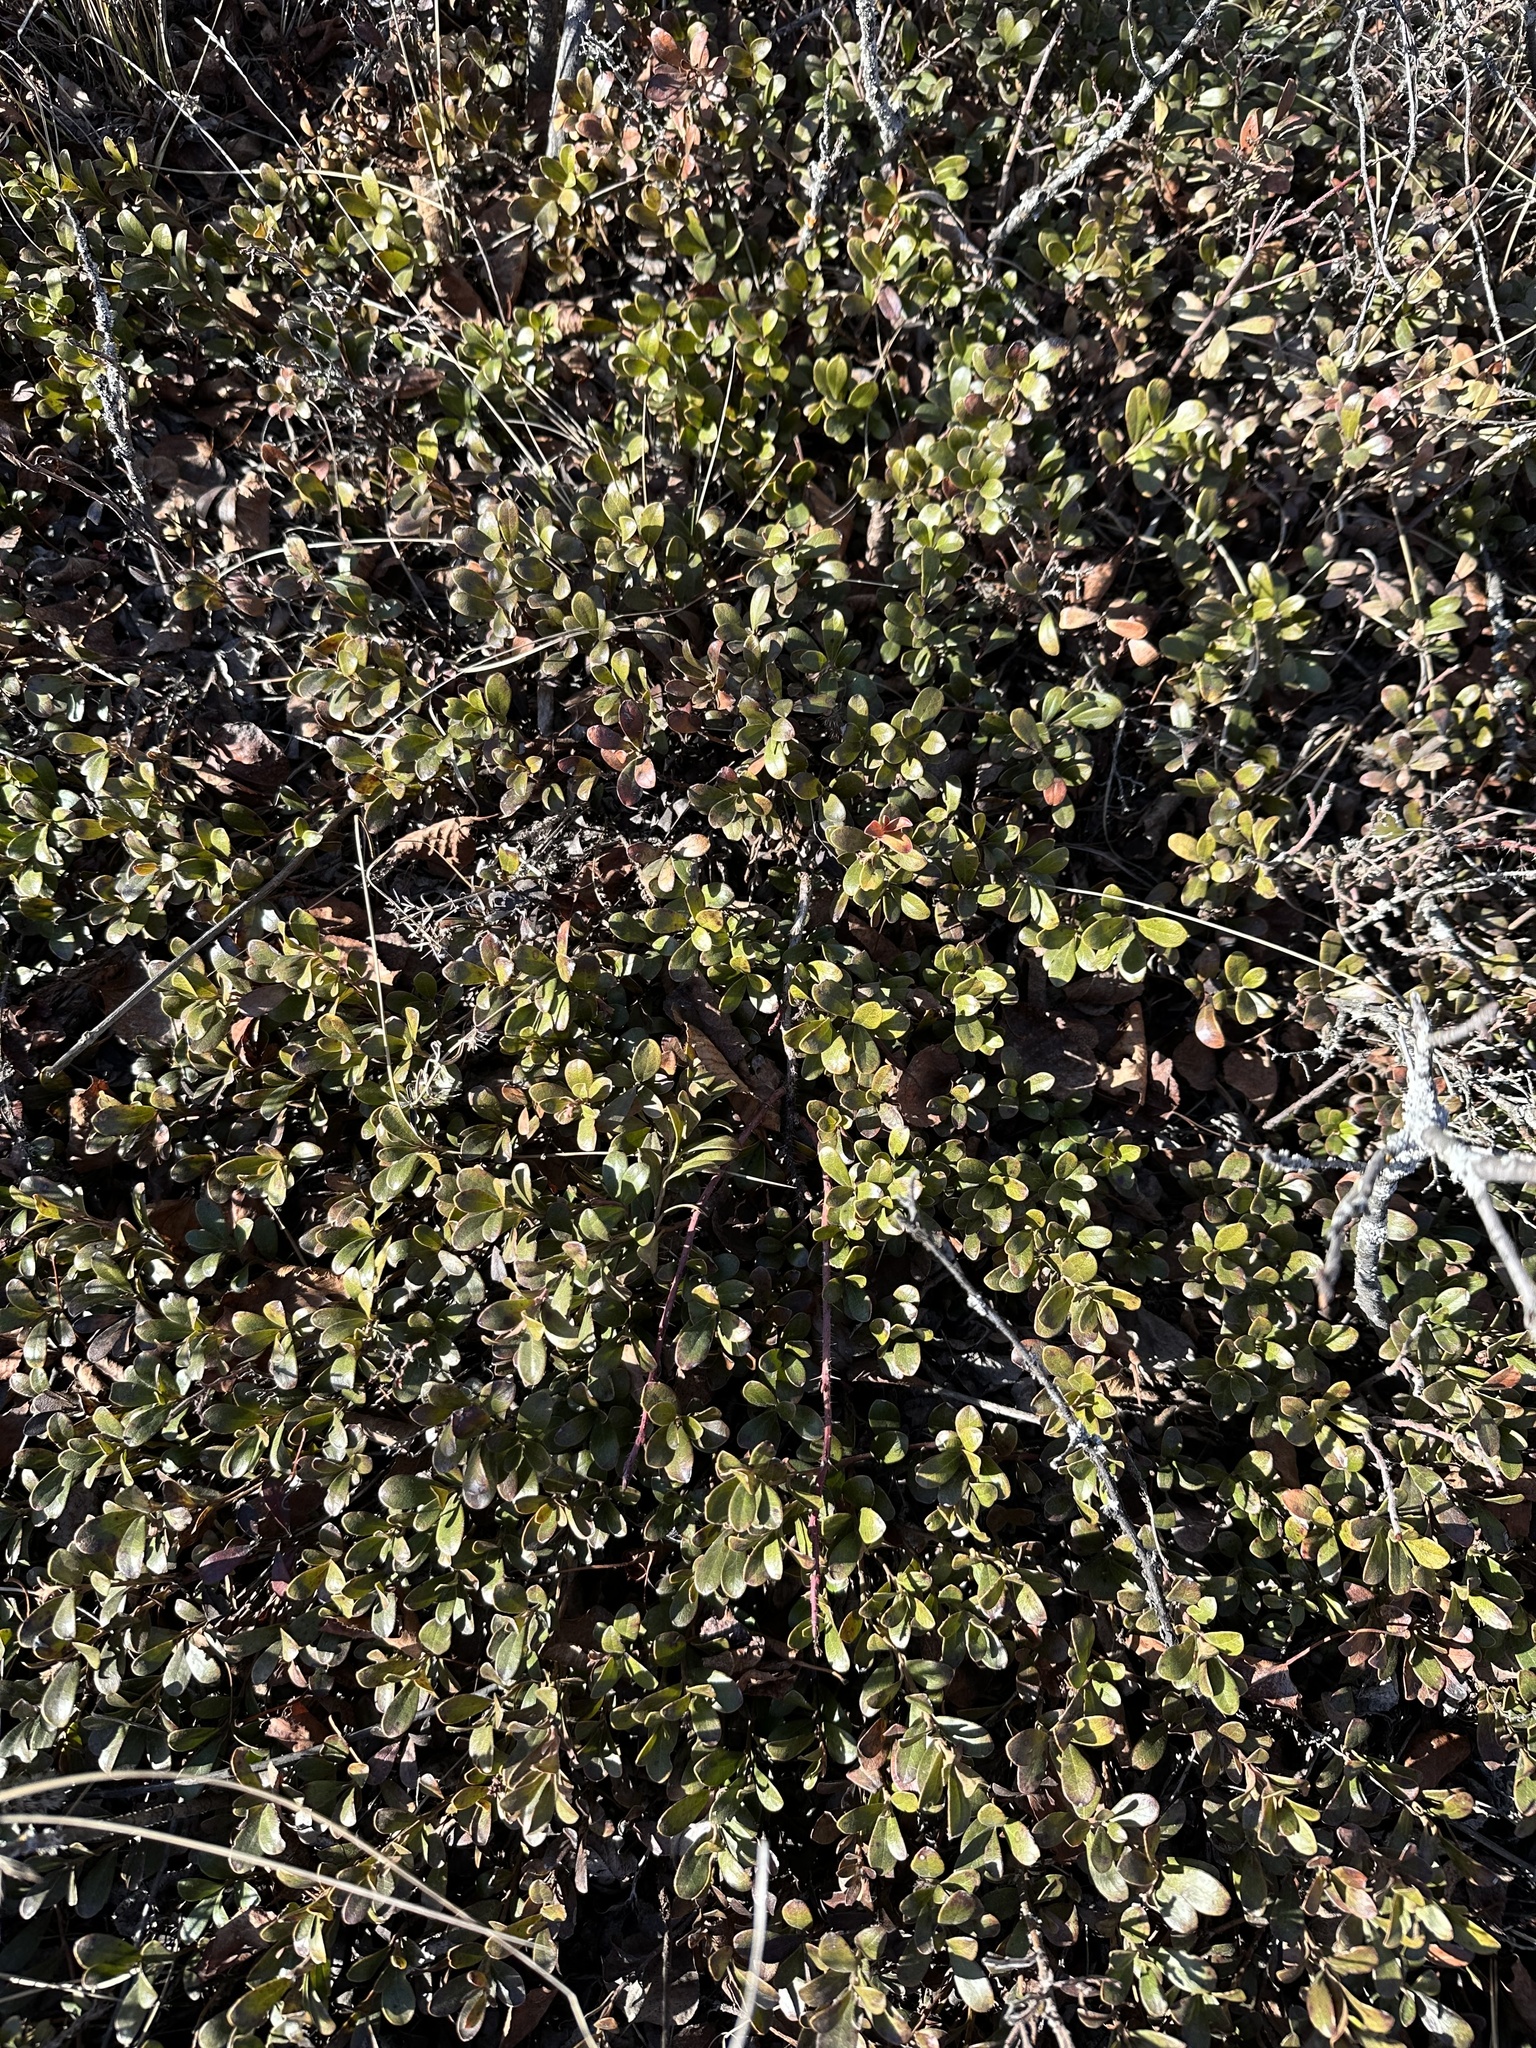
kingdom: Plantae
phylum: Tracheophyta
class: Magnoliopsida
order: Ericales
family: Ericaceae
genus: Arctostaphylos
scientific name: Arctostaphylos uva-ursi
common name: Bearberry
